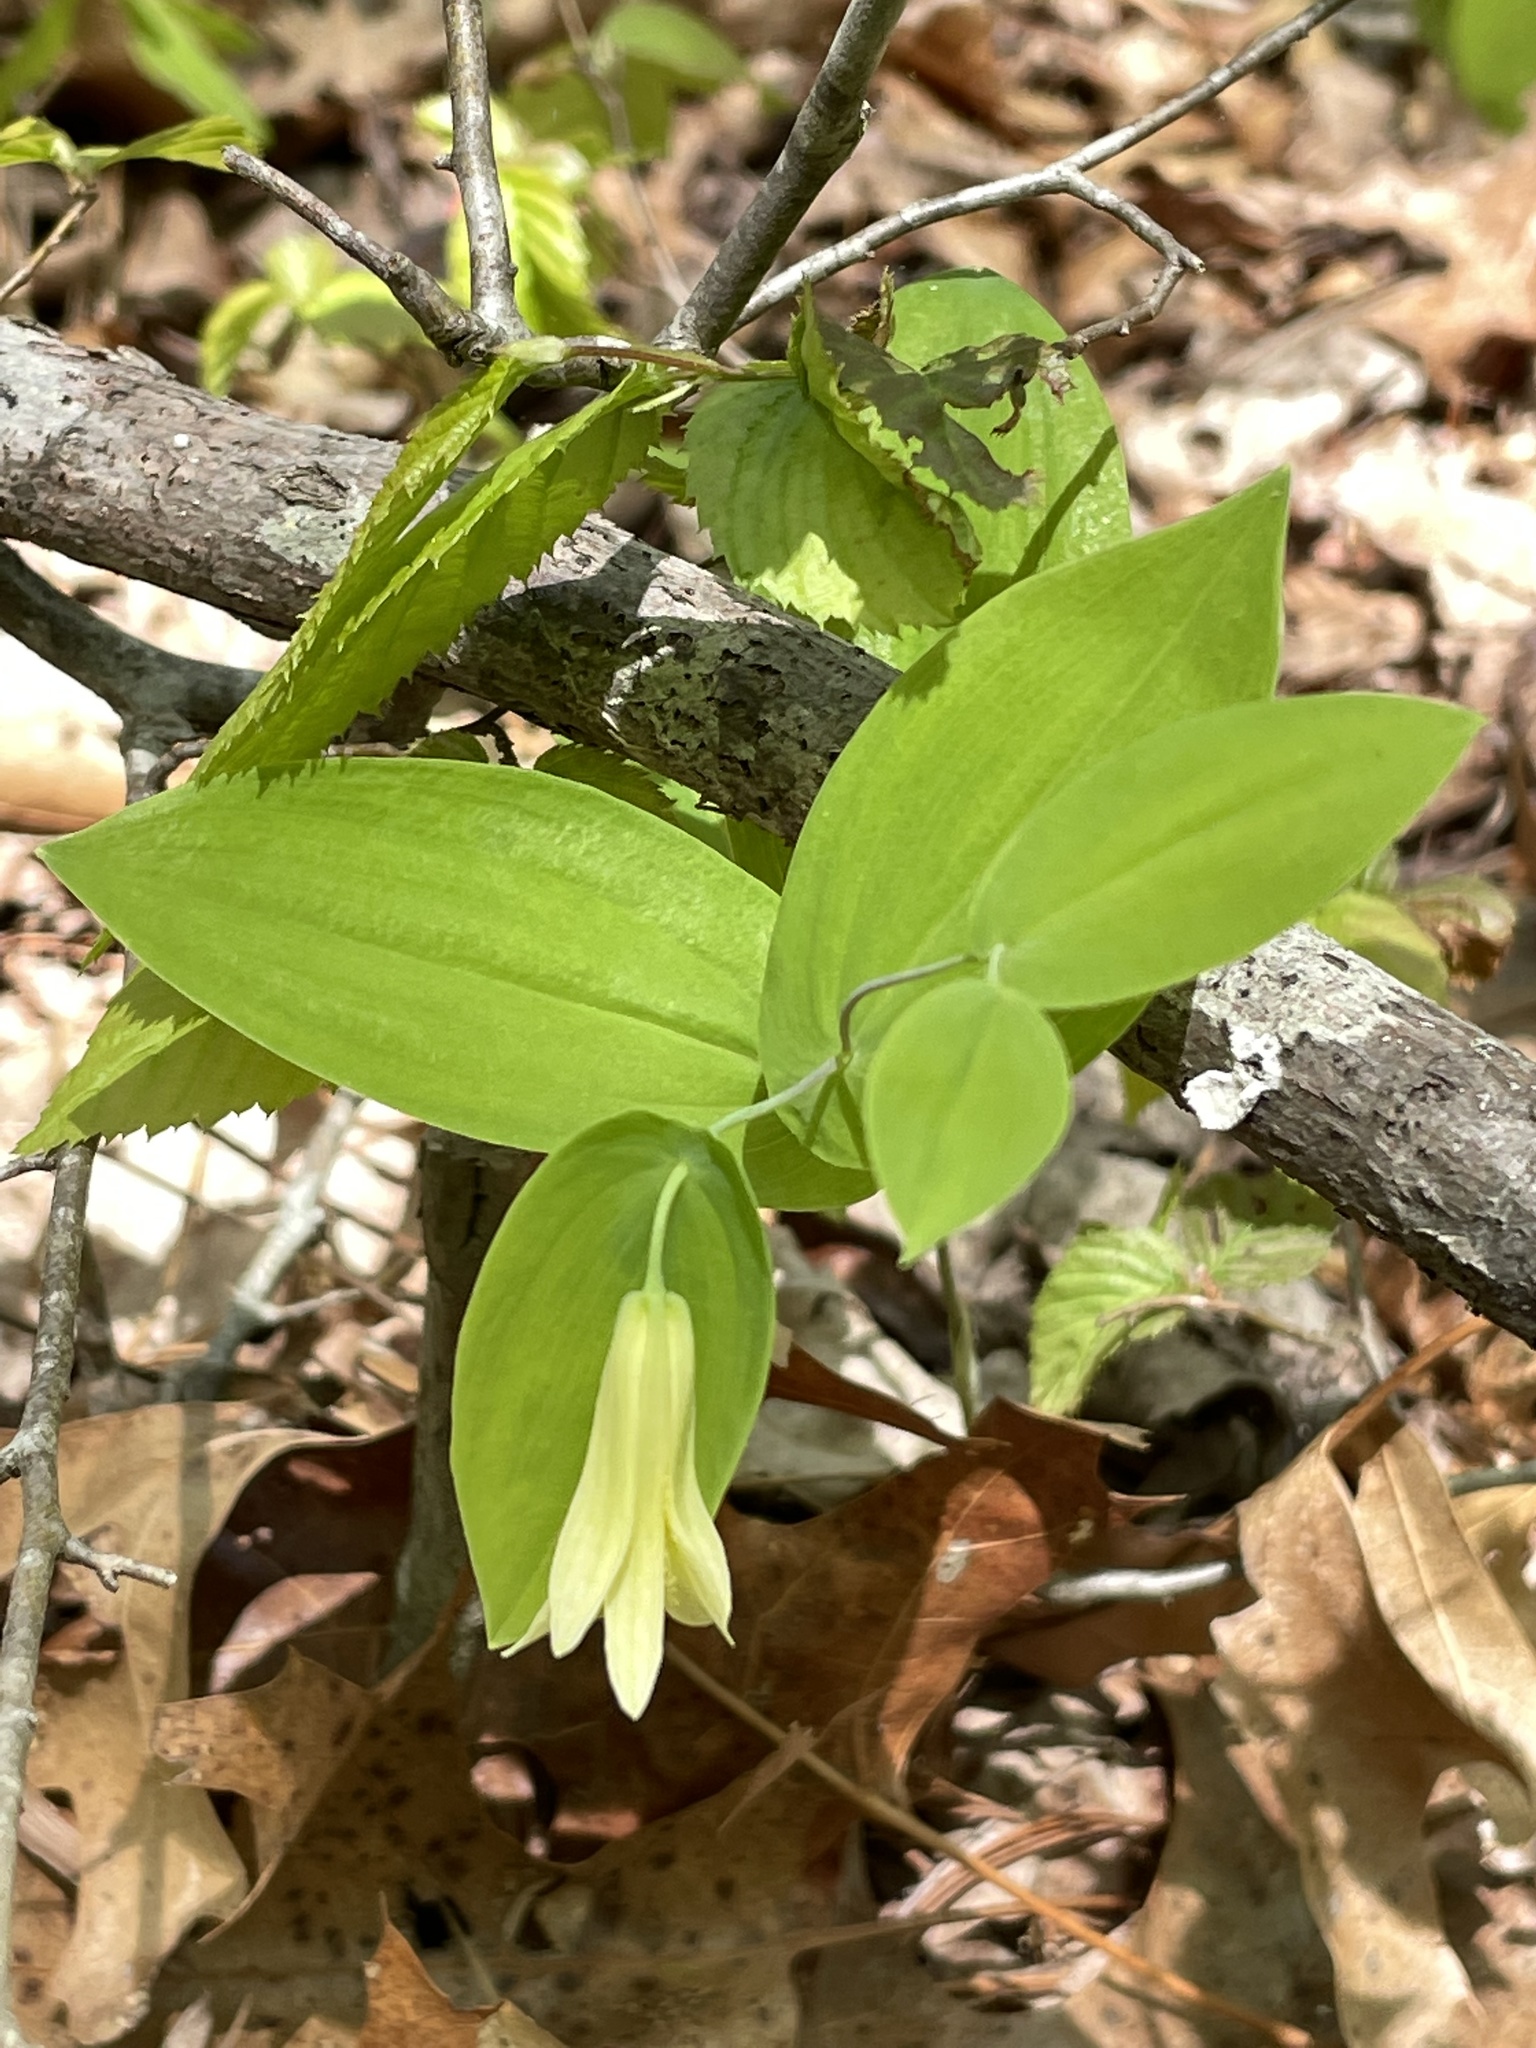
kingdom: Plantae
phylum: Tracheophyta
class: Liliopsida
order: Liliales
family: Colchicaceae
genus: Uvularia
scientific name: Uvularia perfoliata
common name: Perfoliate bellwort
